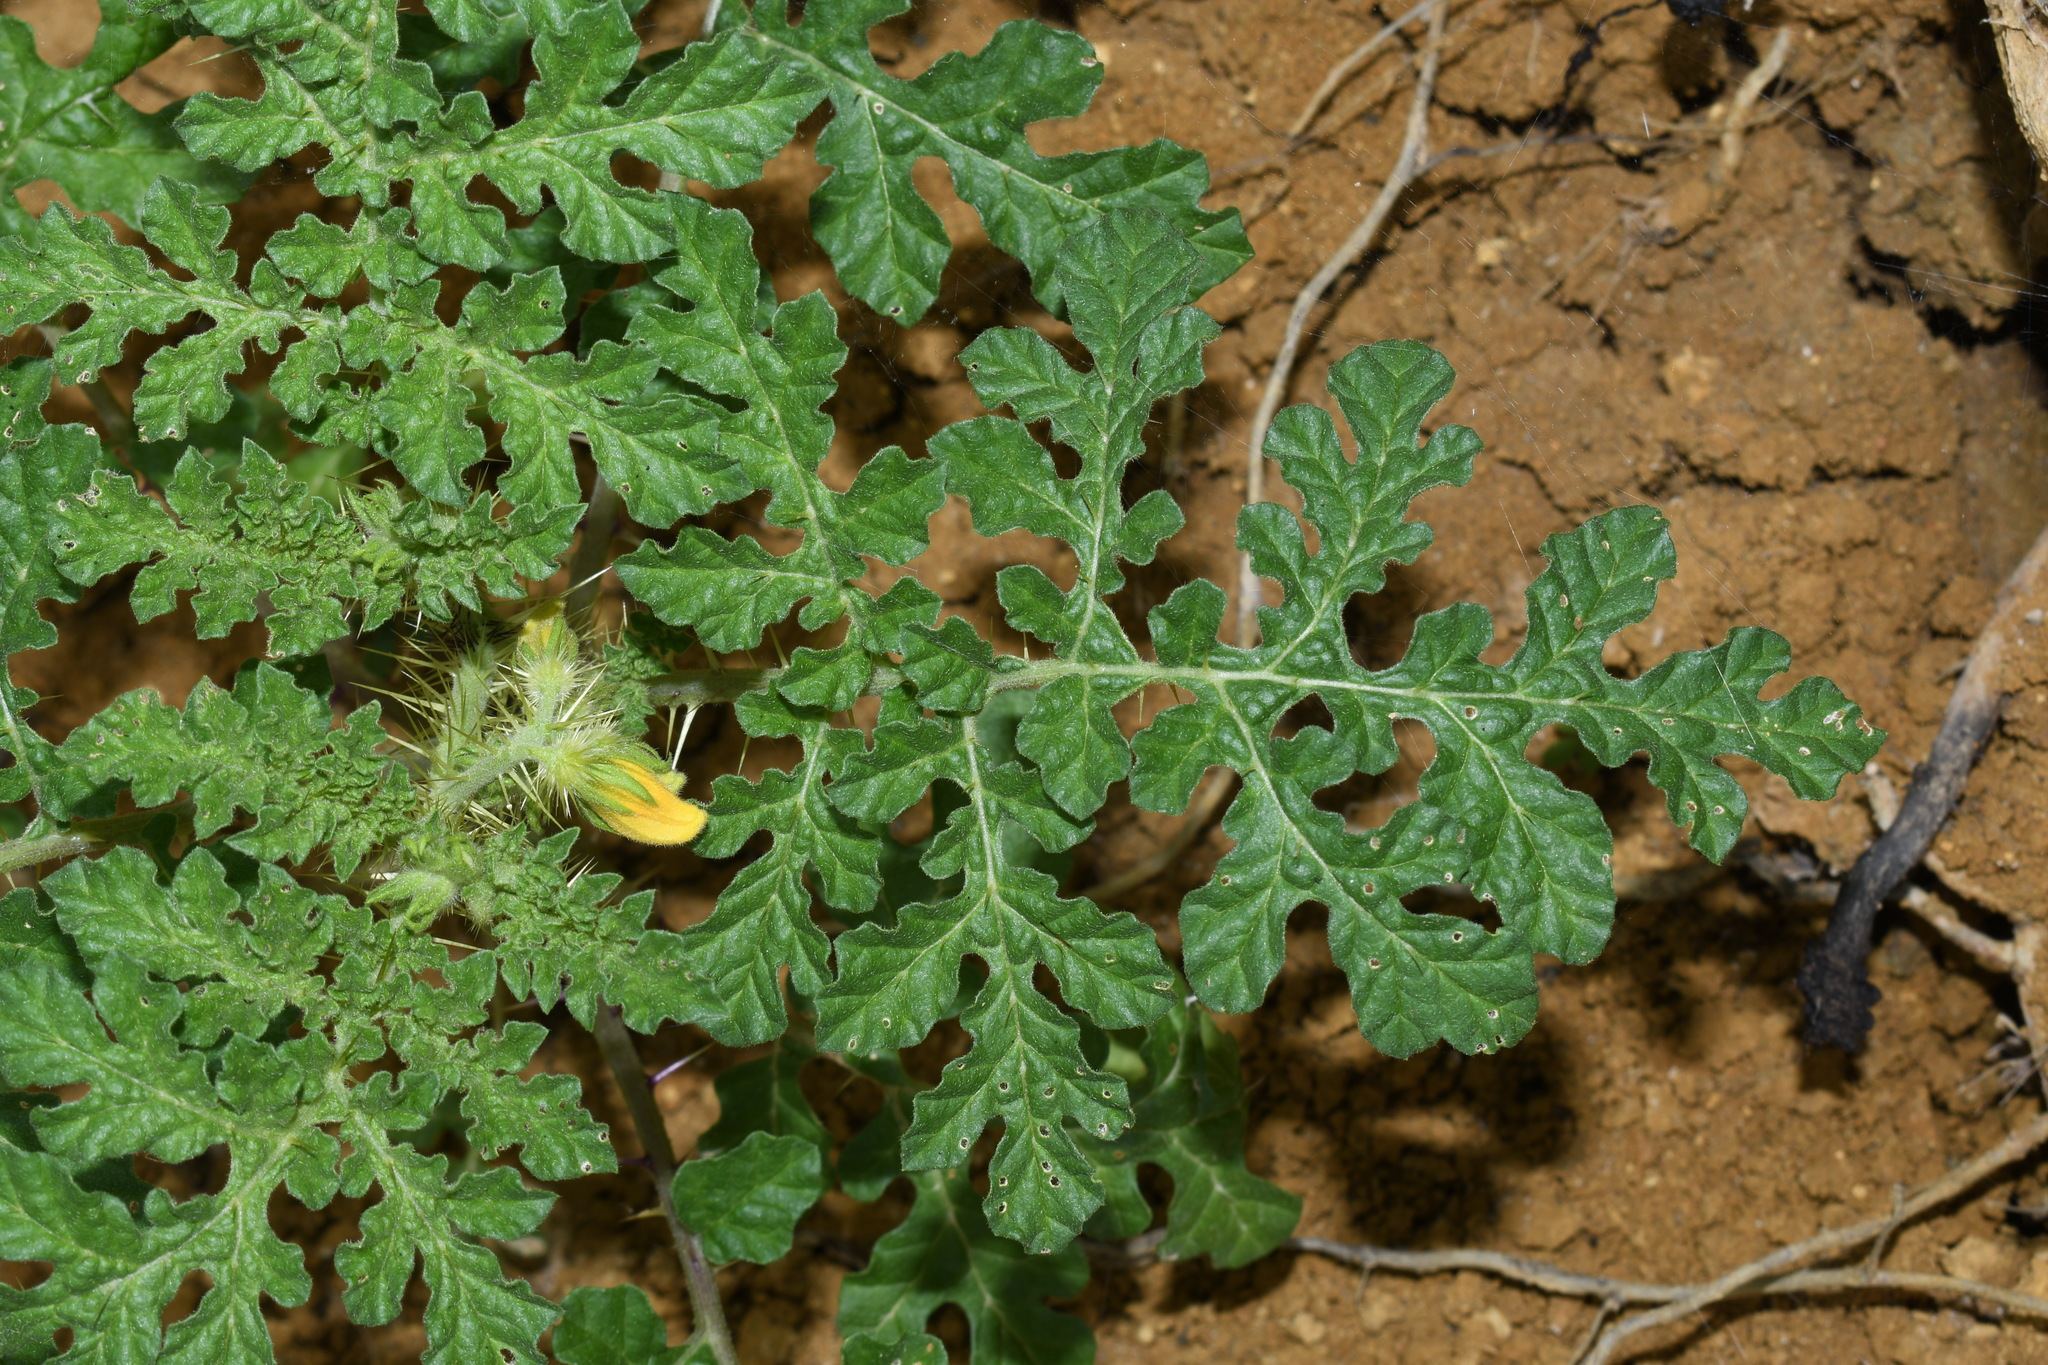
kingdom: Plantae
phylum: Tracheophyta
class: Magnoliopsida
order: Solanales
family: Solanaceae
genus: Solanum
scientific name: Solanum angustifolium
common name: Buffalobur nightshade
